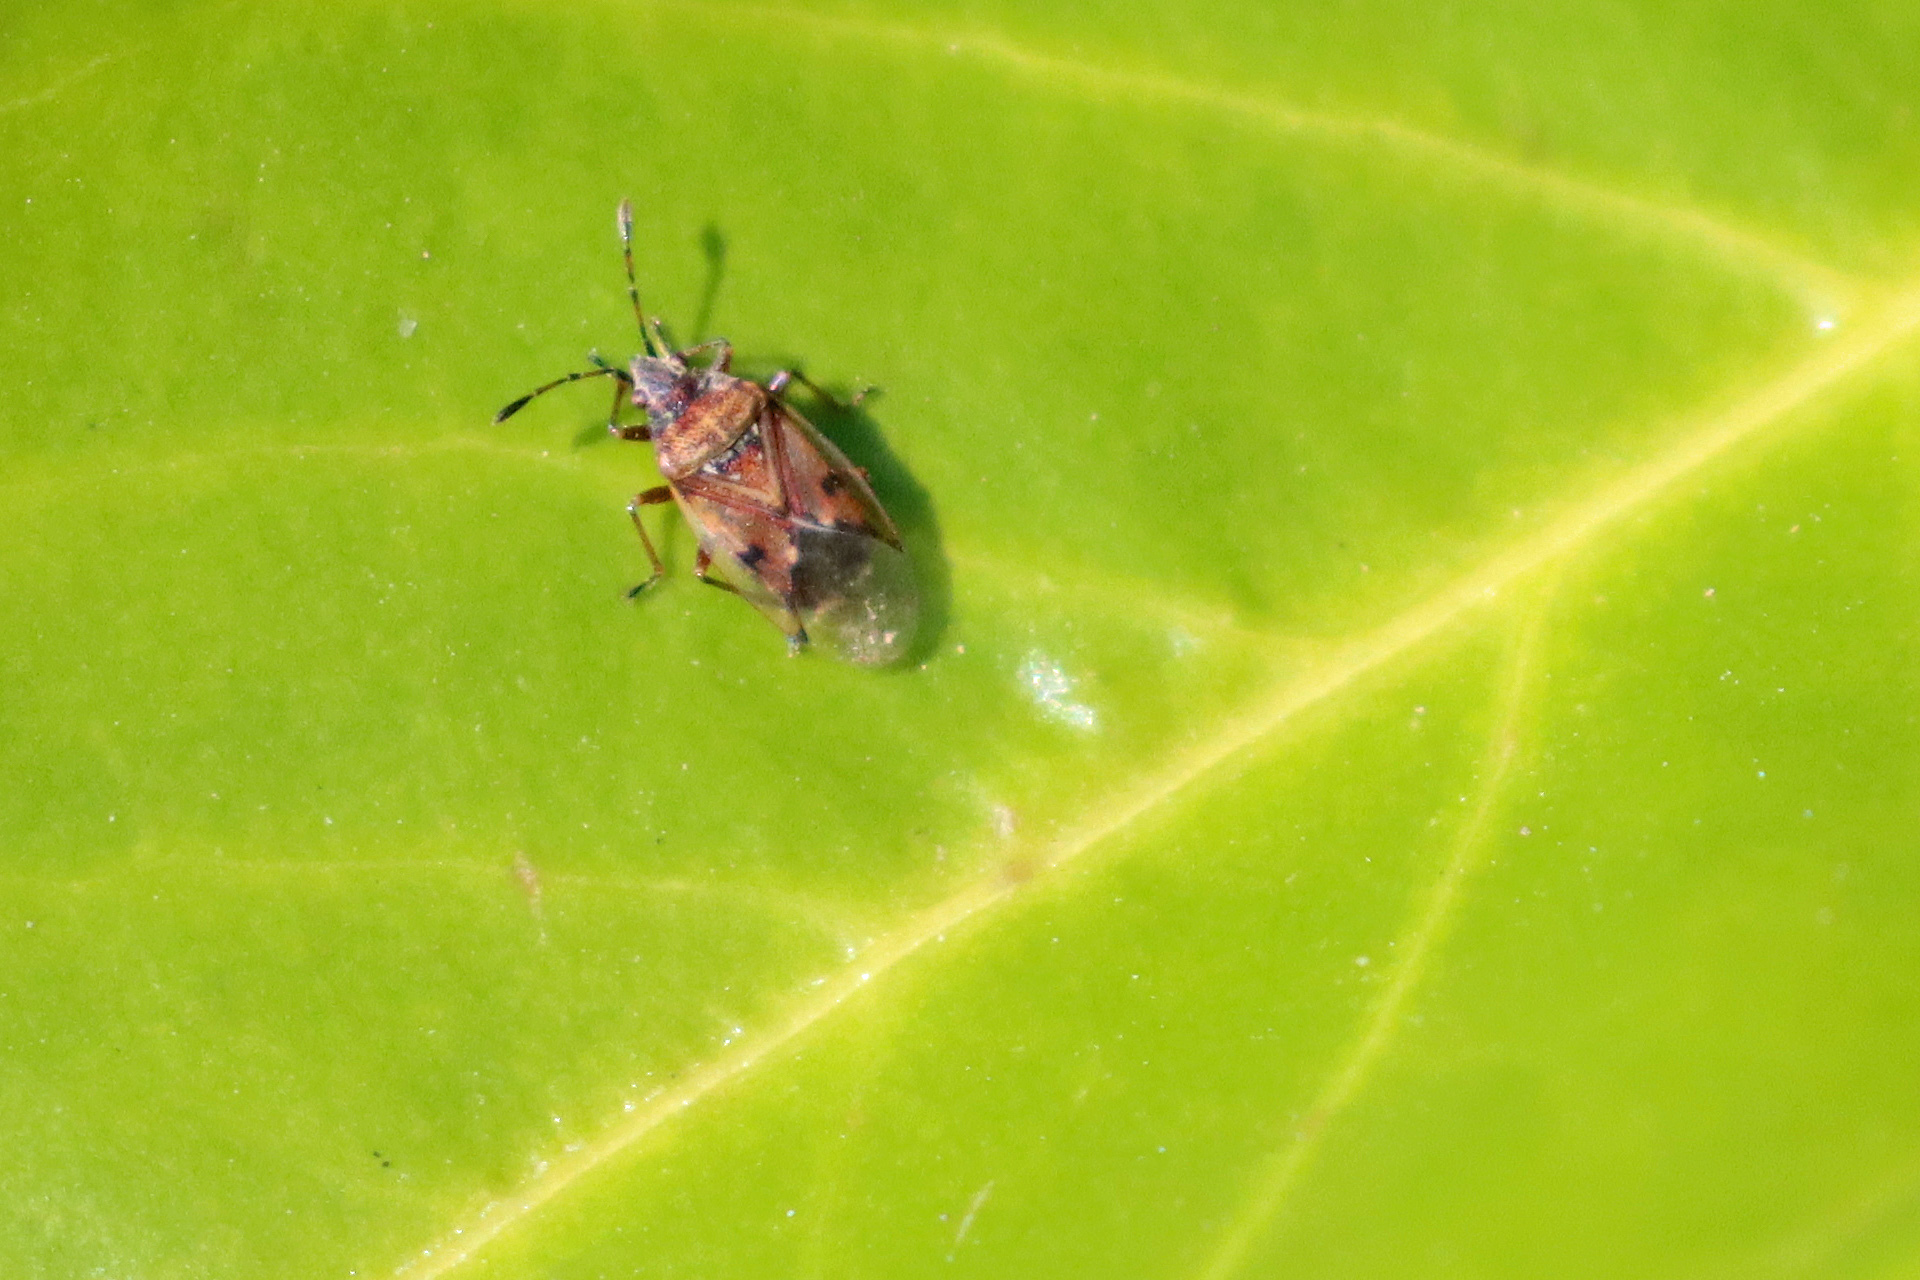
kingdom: Animalia
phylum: Arthropoda
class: Insecta
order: Hemiptera
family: Lygaeidae
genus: Kleidocerys
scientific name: Kleidocerys resedae
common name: Birch catkin bug
